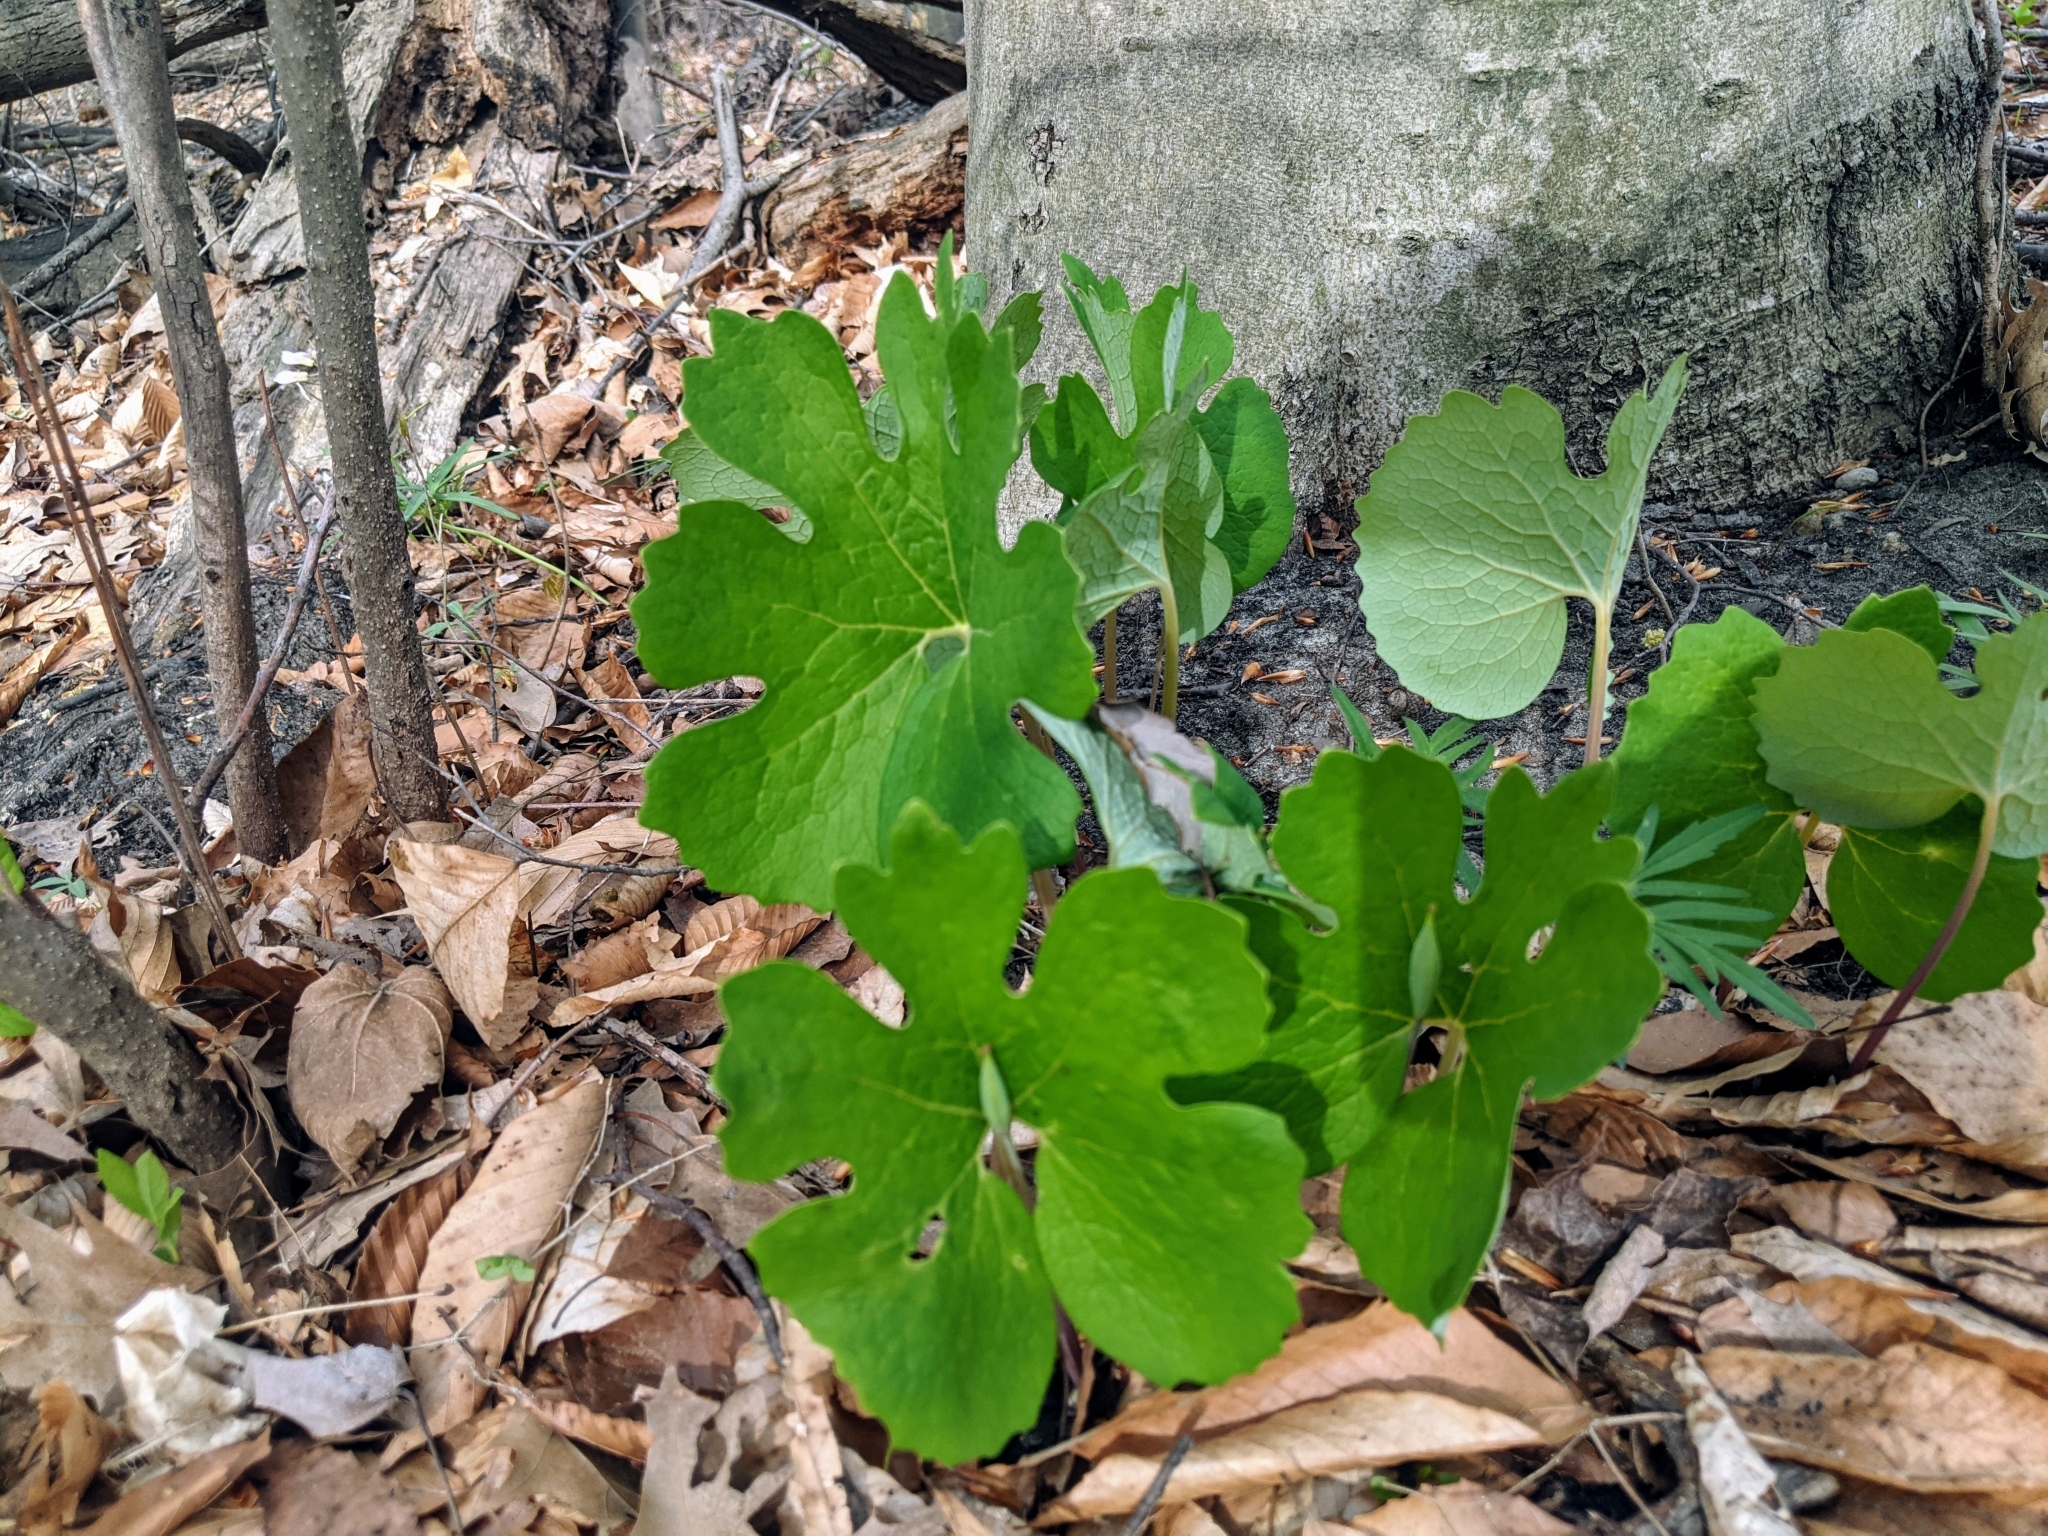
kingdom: Plantae
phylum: Tracheophyta
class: Magnoliopsida
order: Ranunculales
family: Papaveraceae
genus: Sanguinaria
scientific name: Sanguinaria canadensis
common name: Bloodroot
